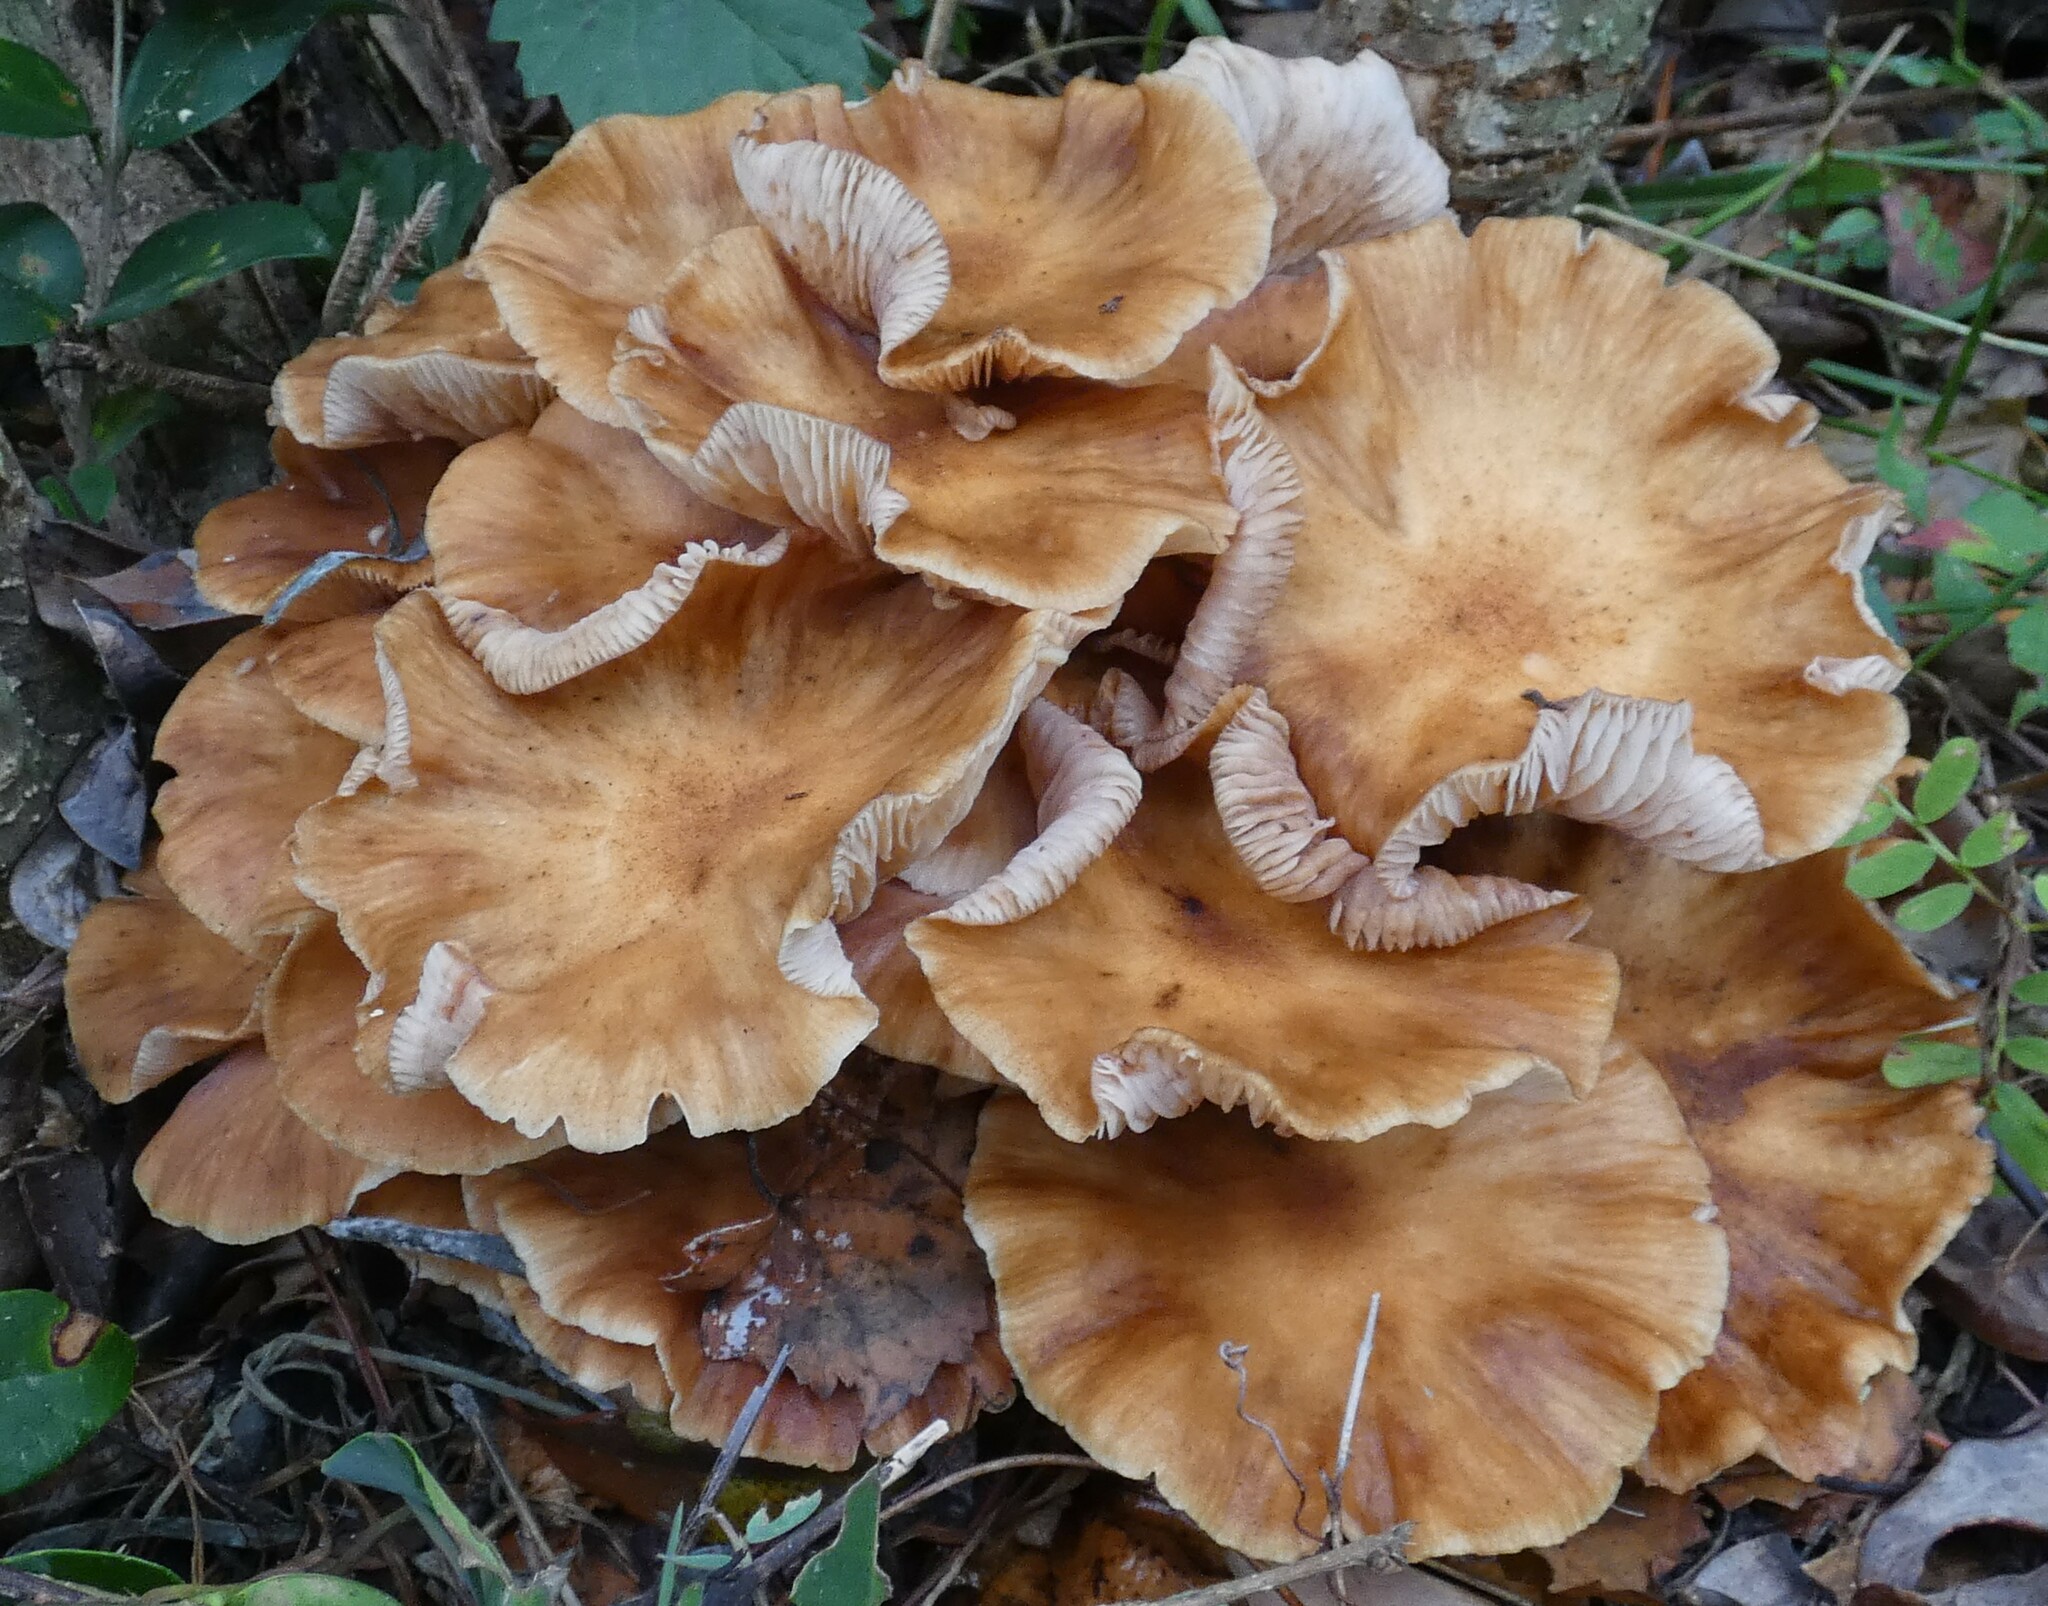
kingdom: Fungi
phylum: Basidiomycota
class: Agaricomycetes
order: Agaricales
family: Physalacriaceae
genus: Desarmillaria
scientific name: Desarmillaria caespitosa
